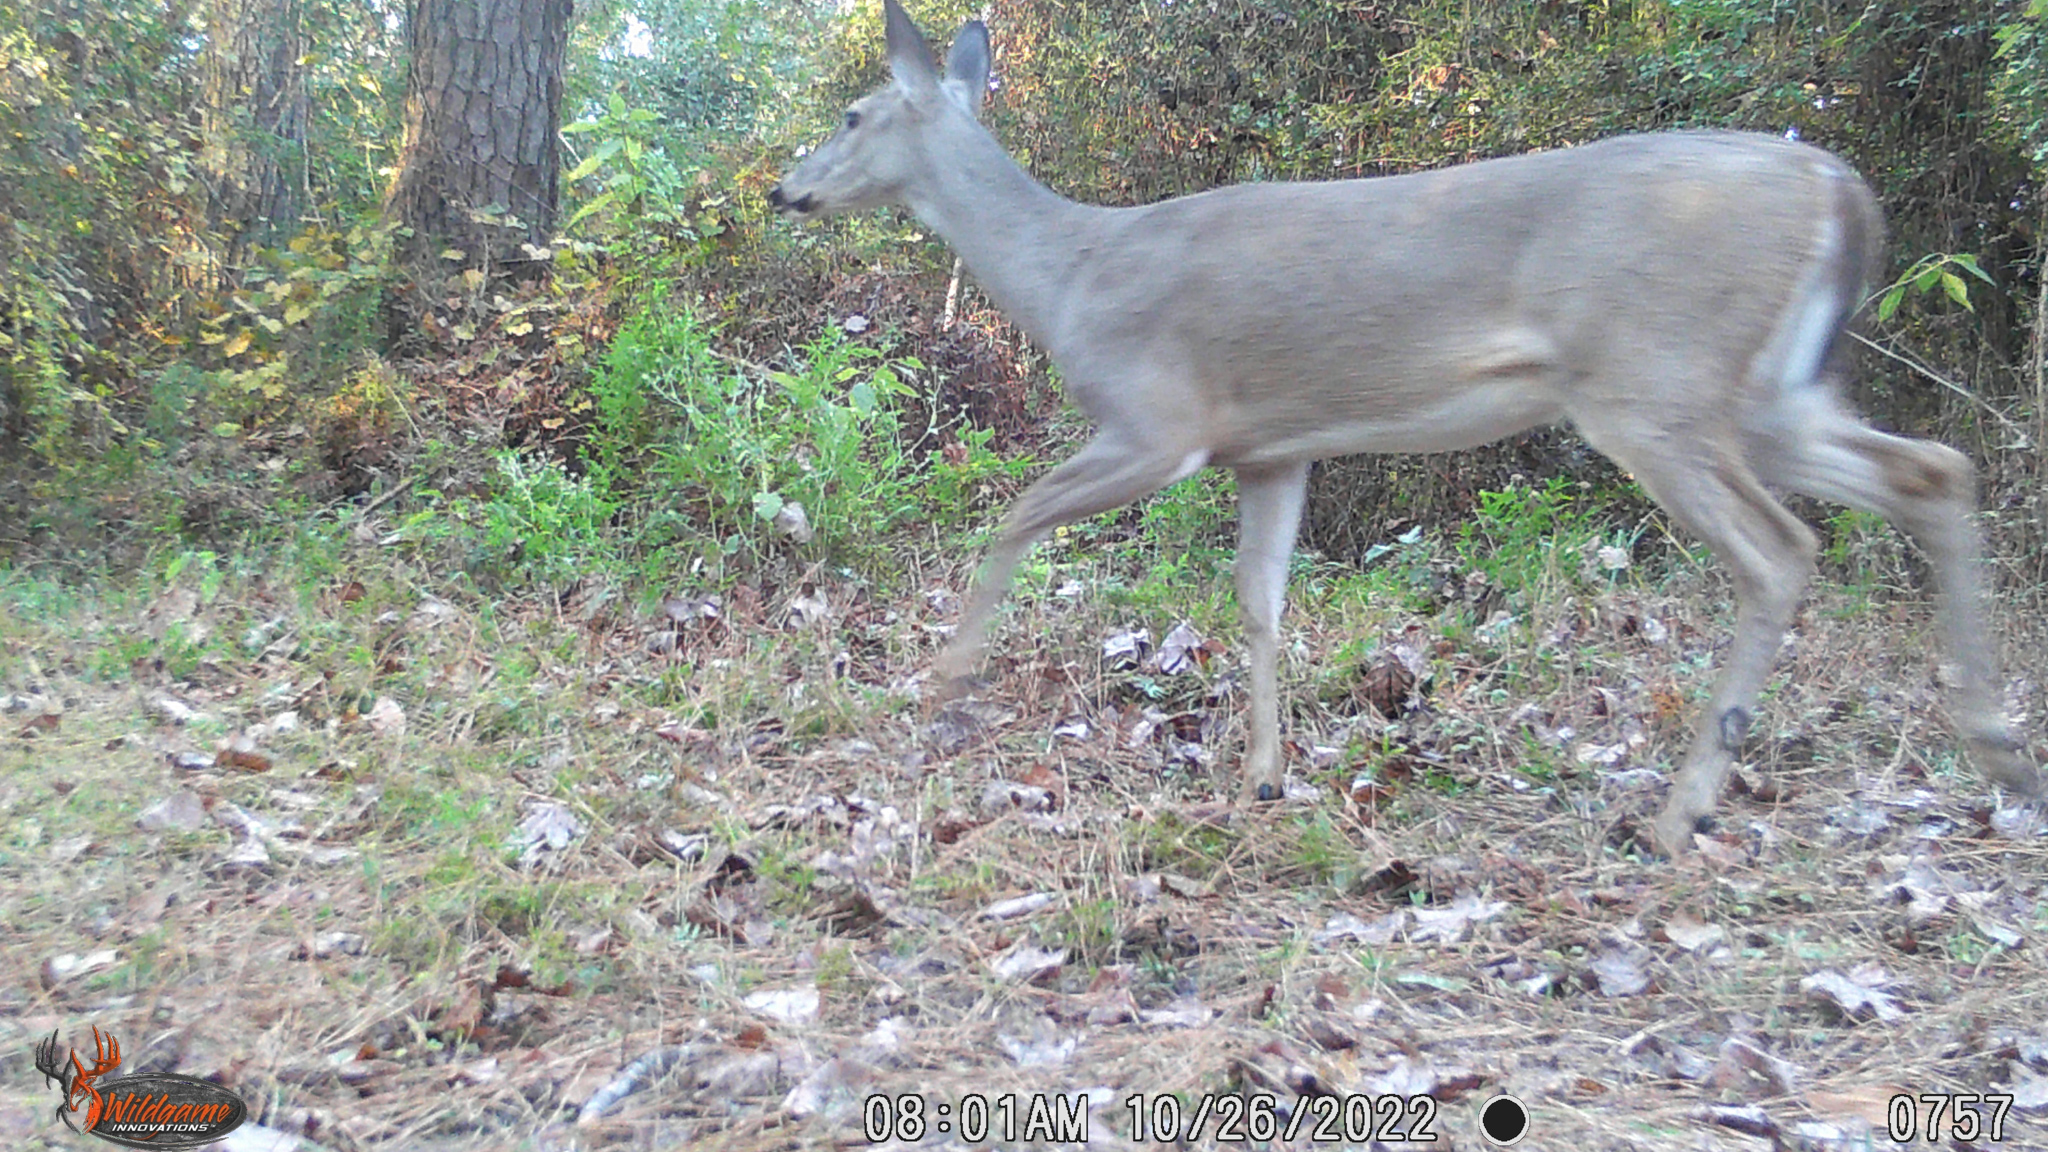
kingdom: Animalia
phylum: Chordata
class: Mammalia
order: Artiodactyla
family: Cervidae
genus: Odocoileus
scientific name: Odocoileus virginianus
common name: White-tailed deer
